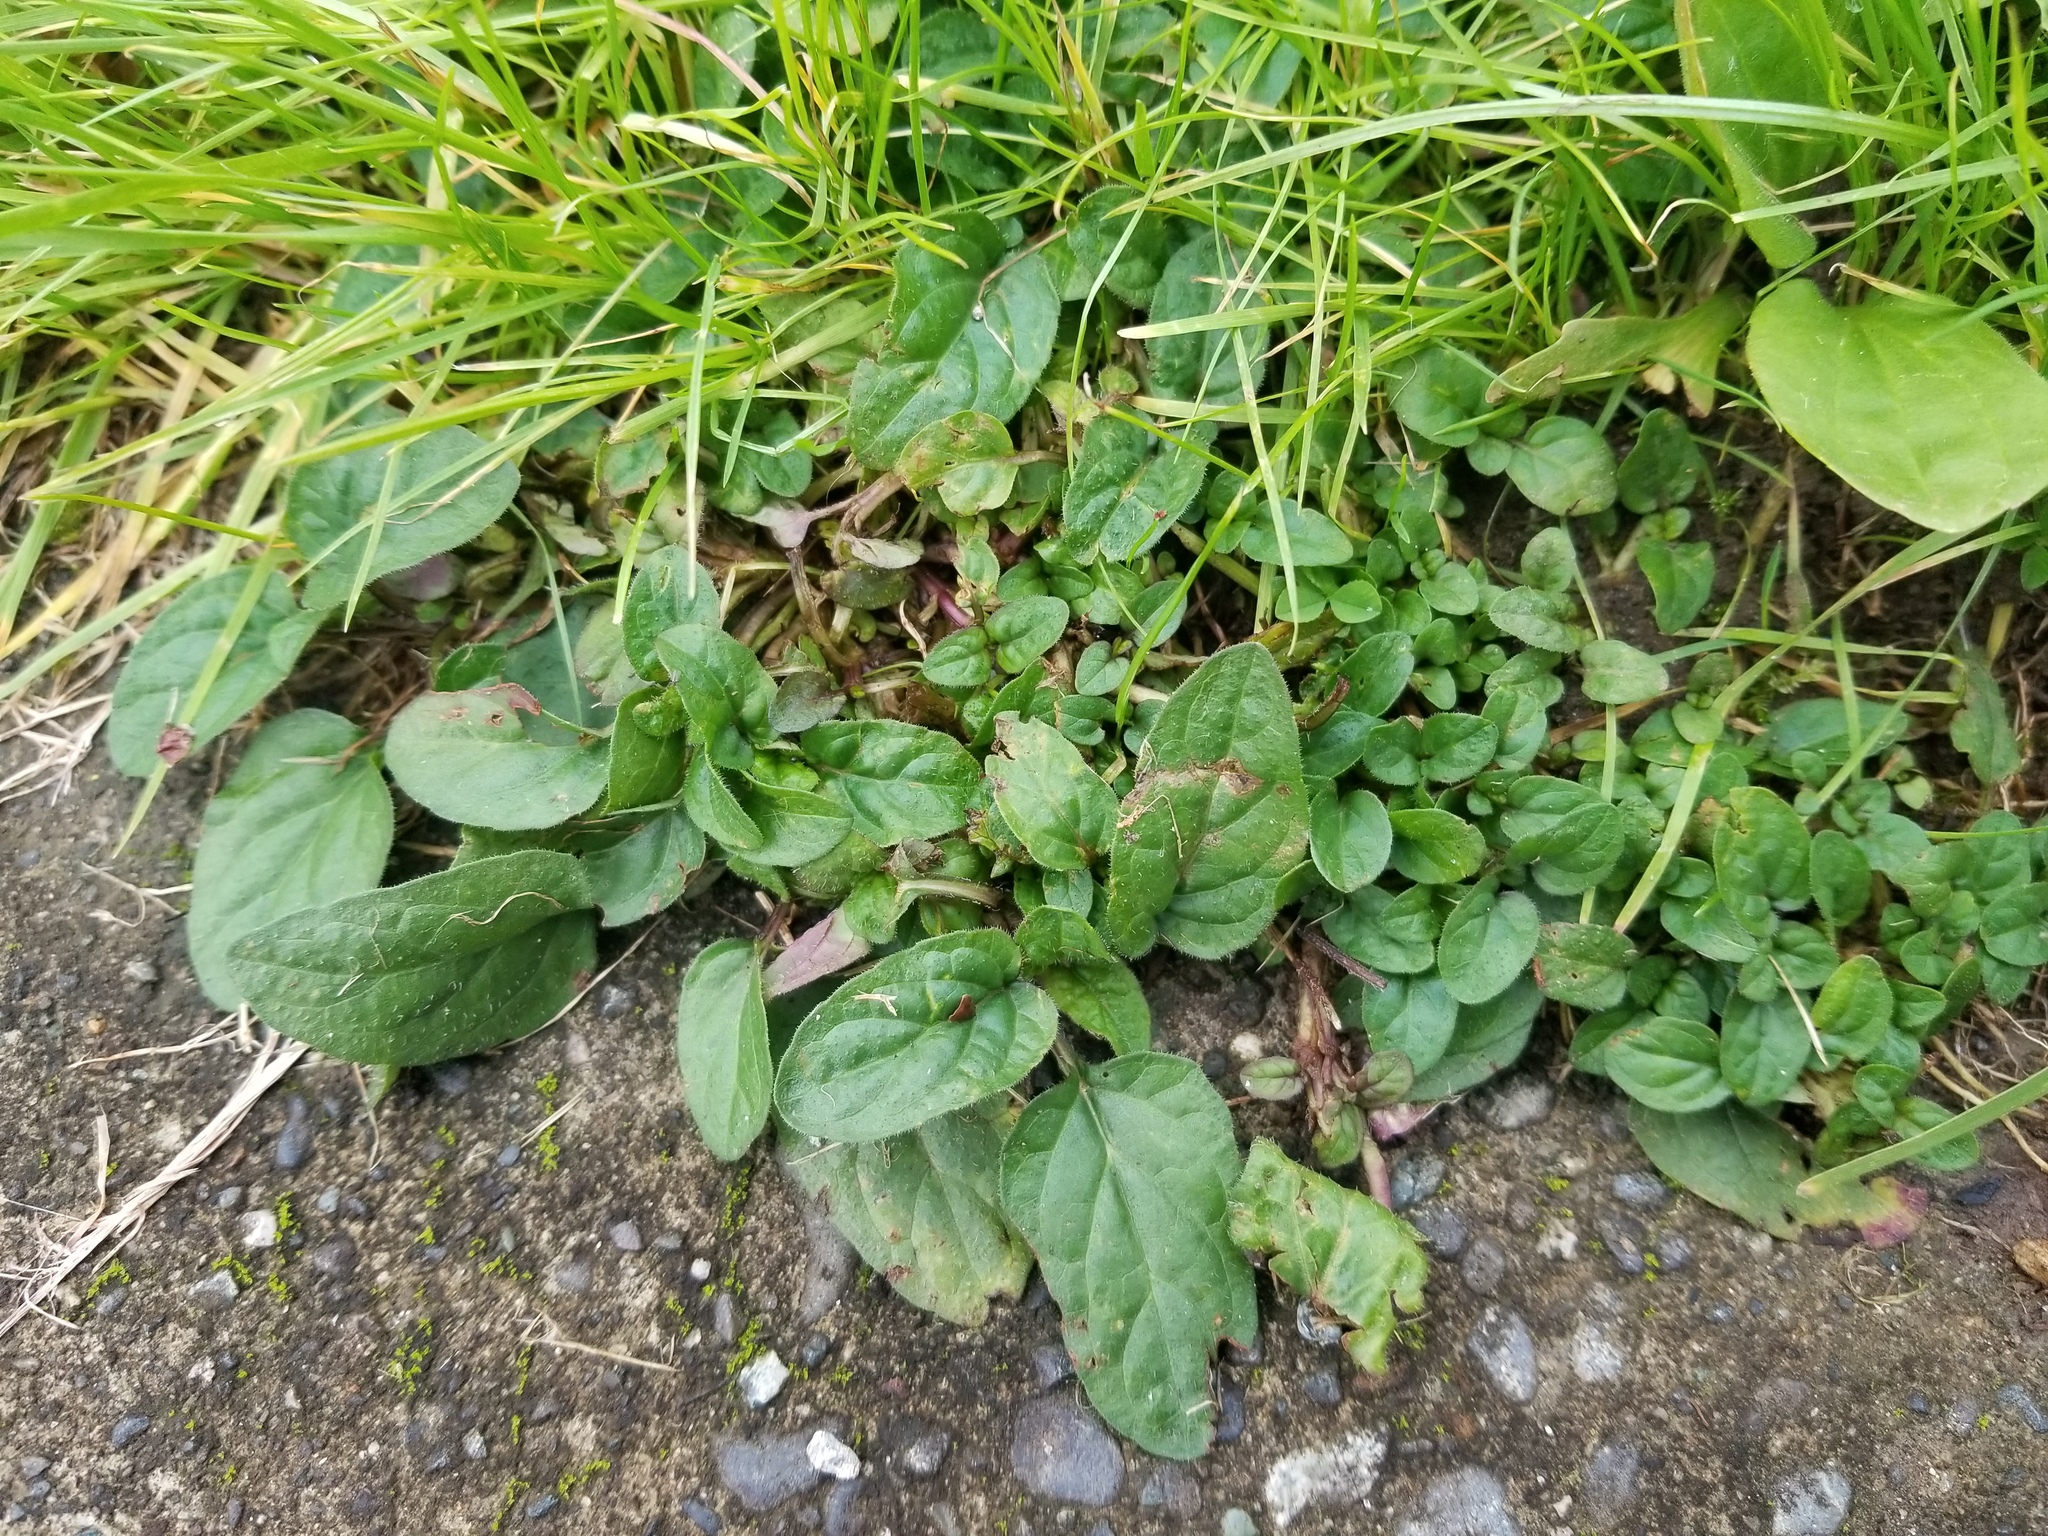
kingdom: Plantae
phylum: Tracheophyta
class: Magnoliopsida
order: Lamiales
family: Lamiaceae
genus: Prunella
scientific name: Prunella vulgaris
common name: Heal-all
